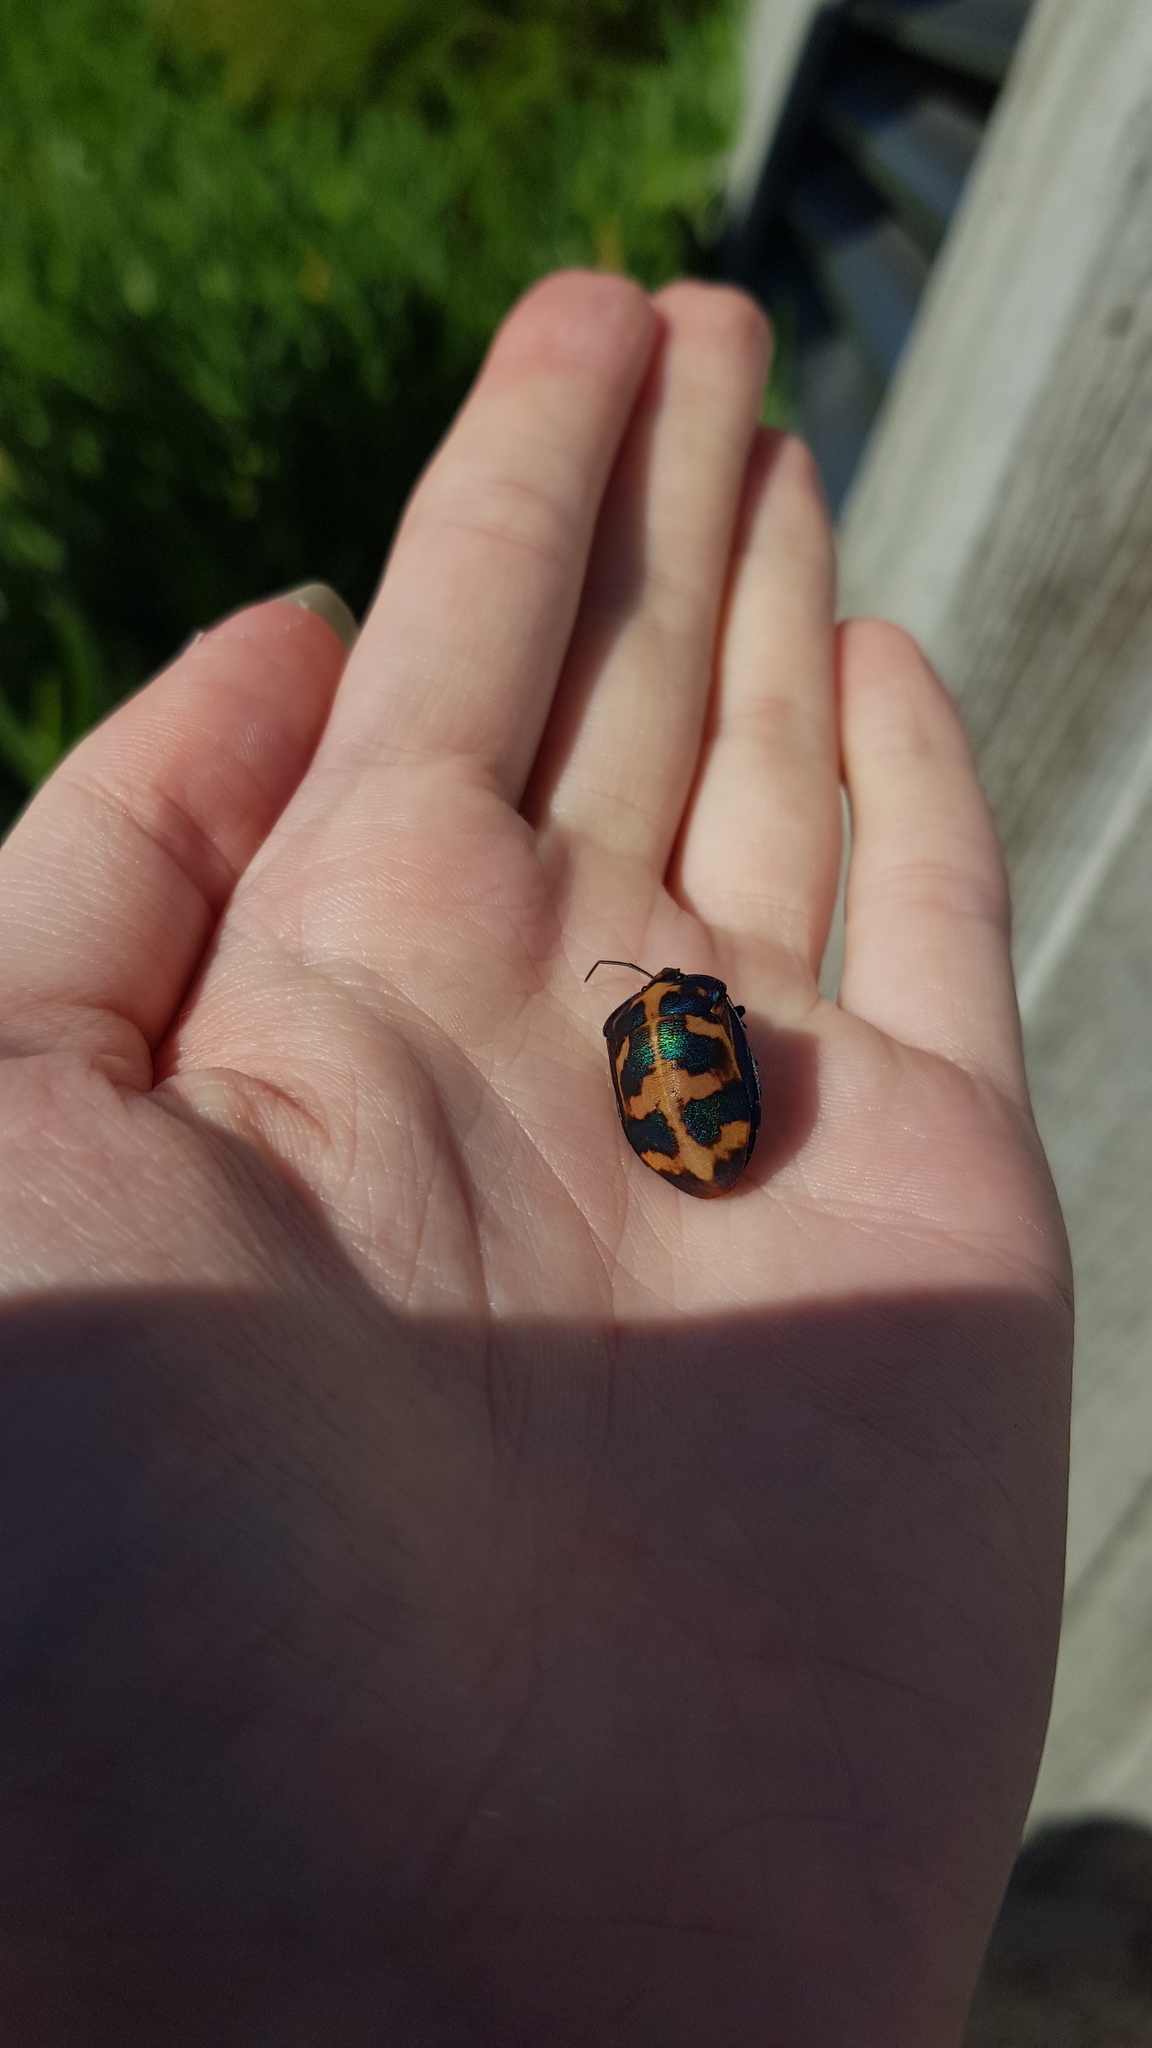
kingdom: Animalia
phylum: Arthropoda
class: Insecta
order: Hemiptera
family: Scutelleridae
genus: Tectocoris
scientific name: Tectocoris diophthalmus
